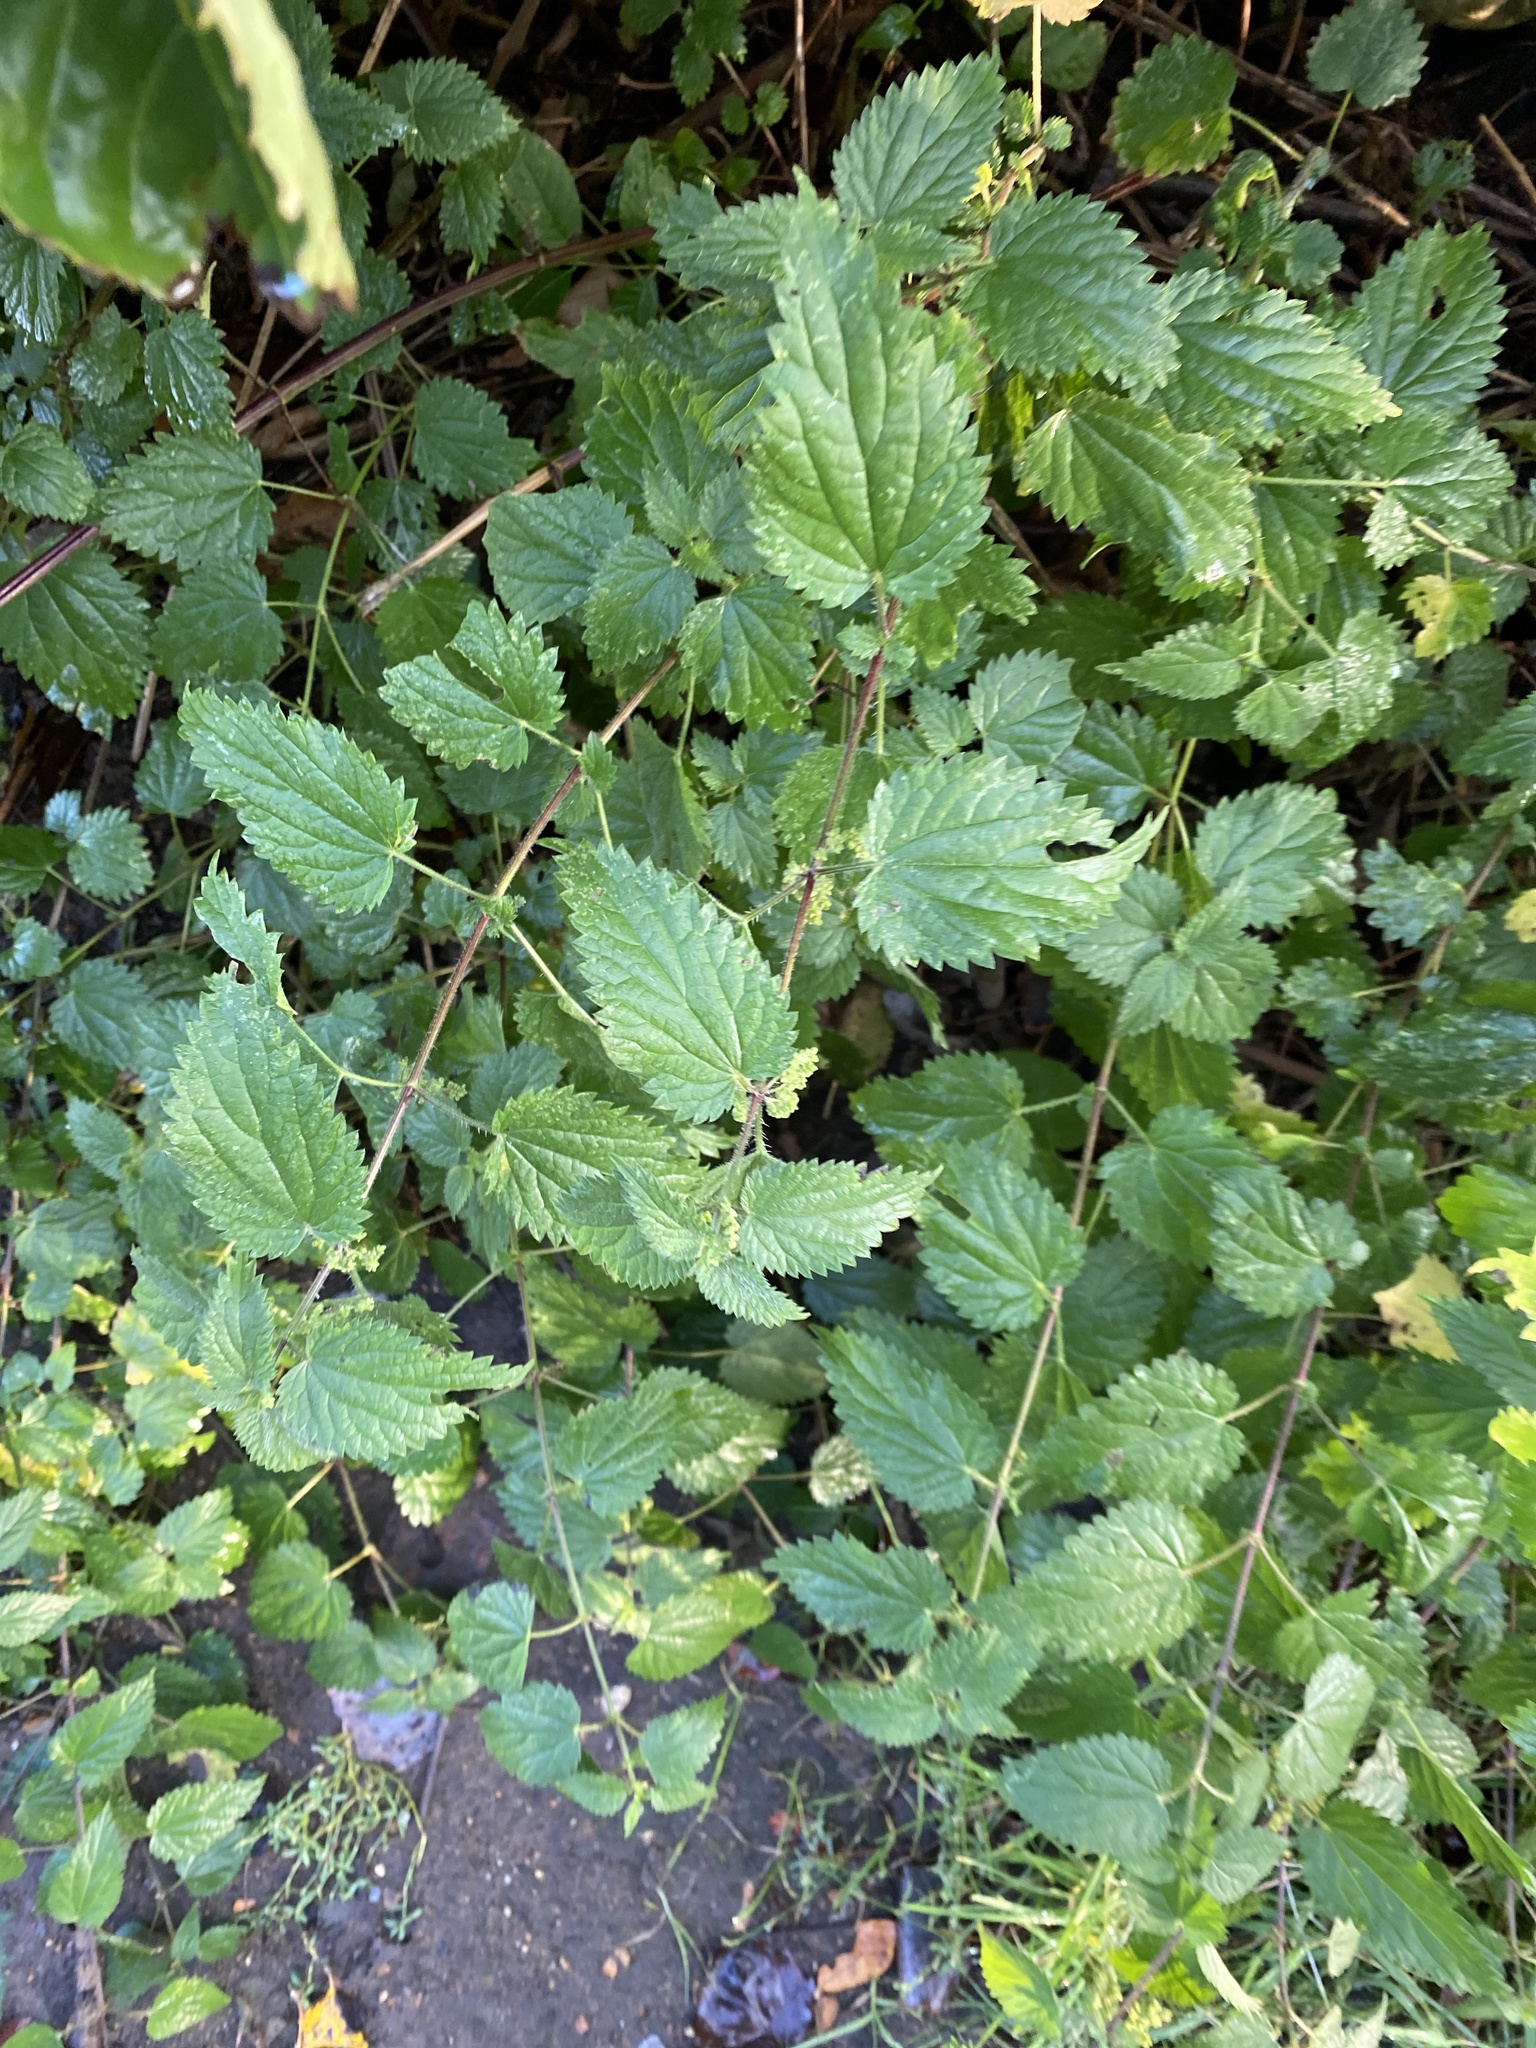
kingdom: Plantae
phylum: Tracheophyta
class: Magnoliopsida
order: Rosales
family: Urticaceae
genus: Urtica
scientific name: Urtica dioica
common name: Common nettle
